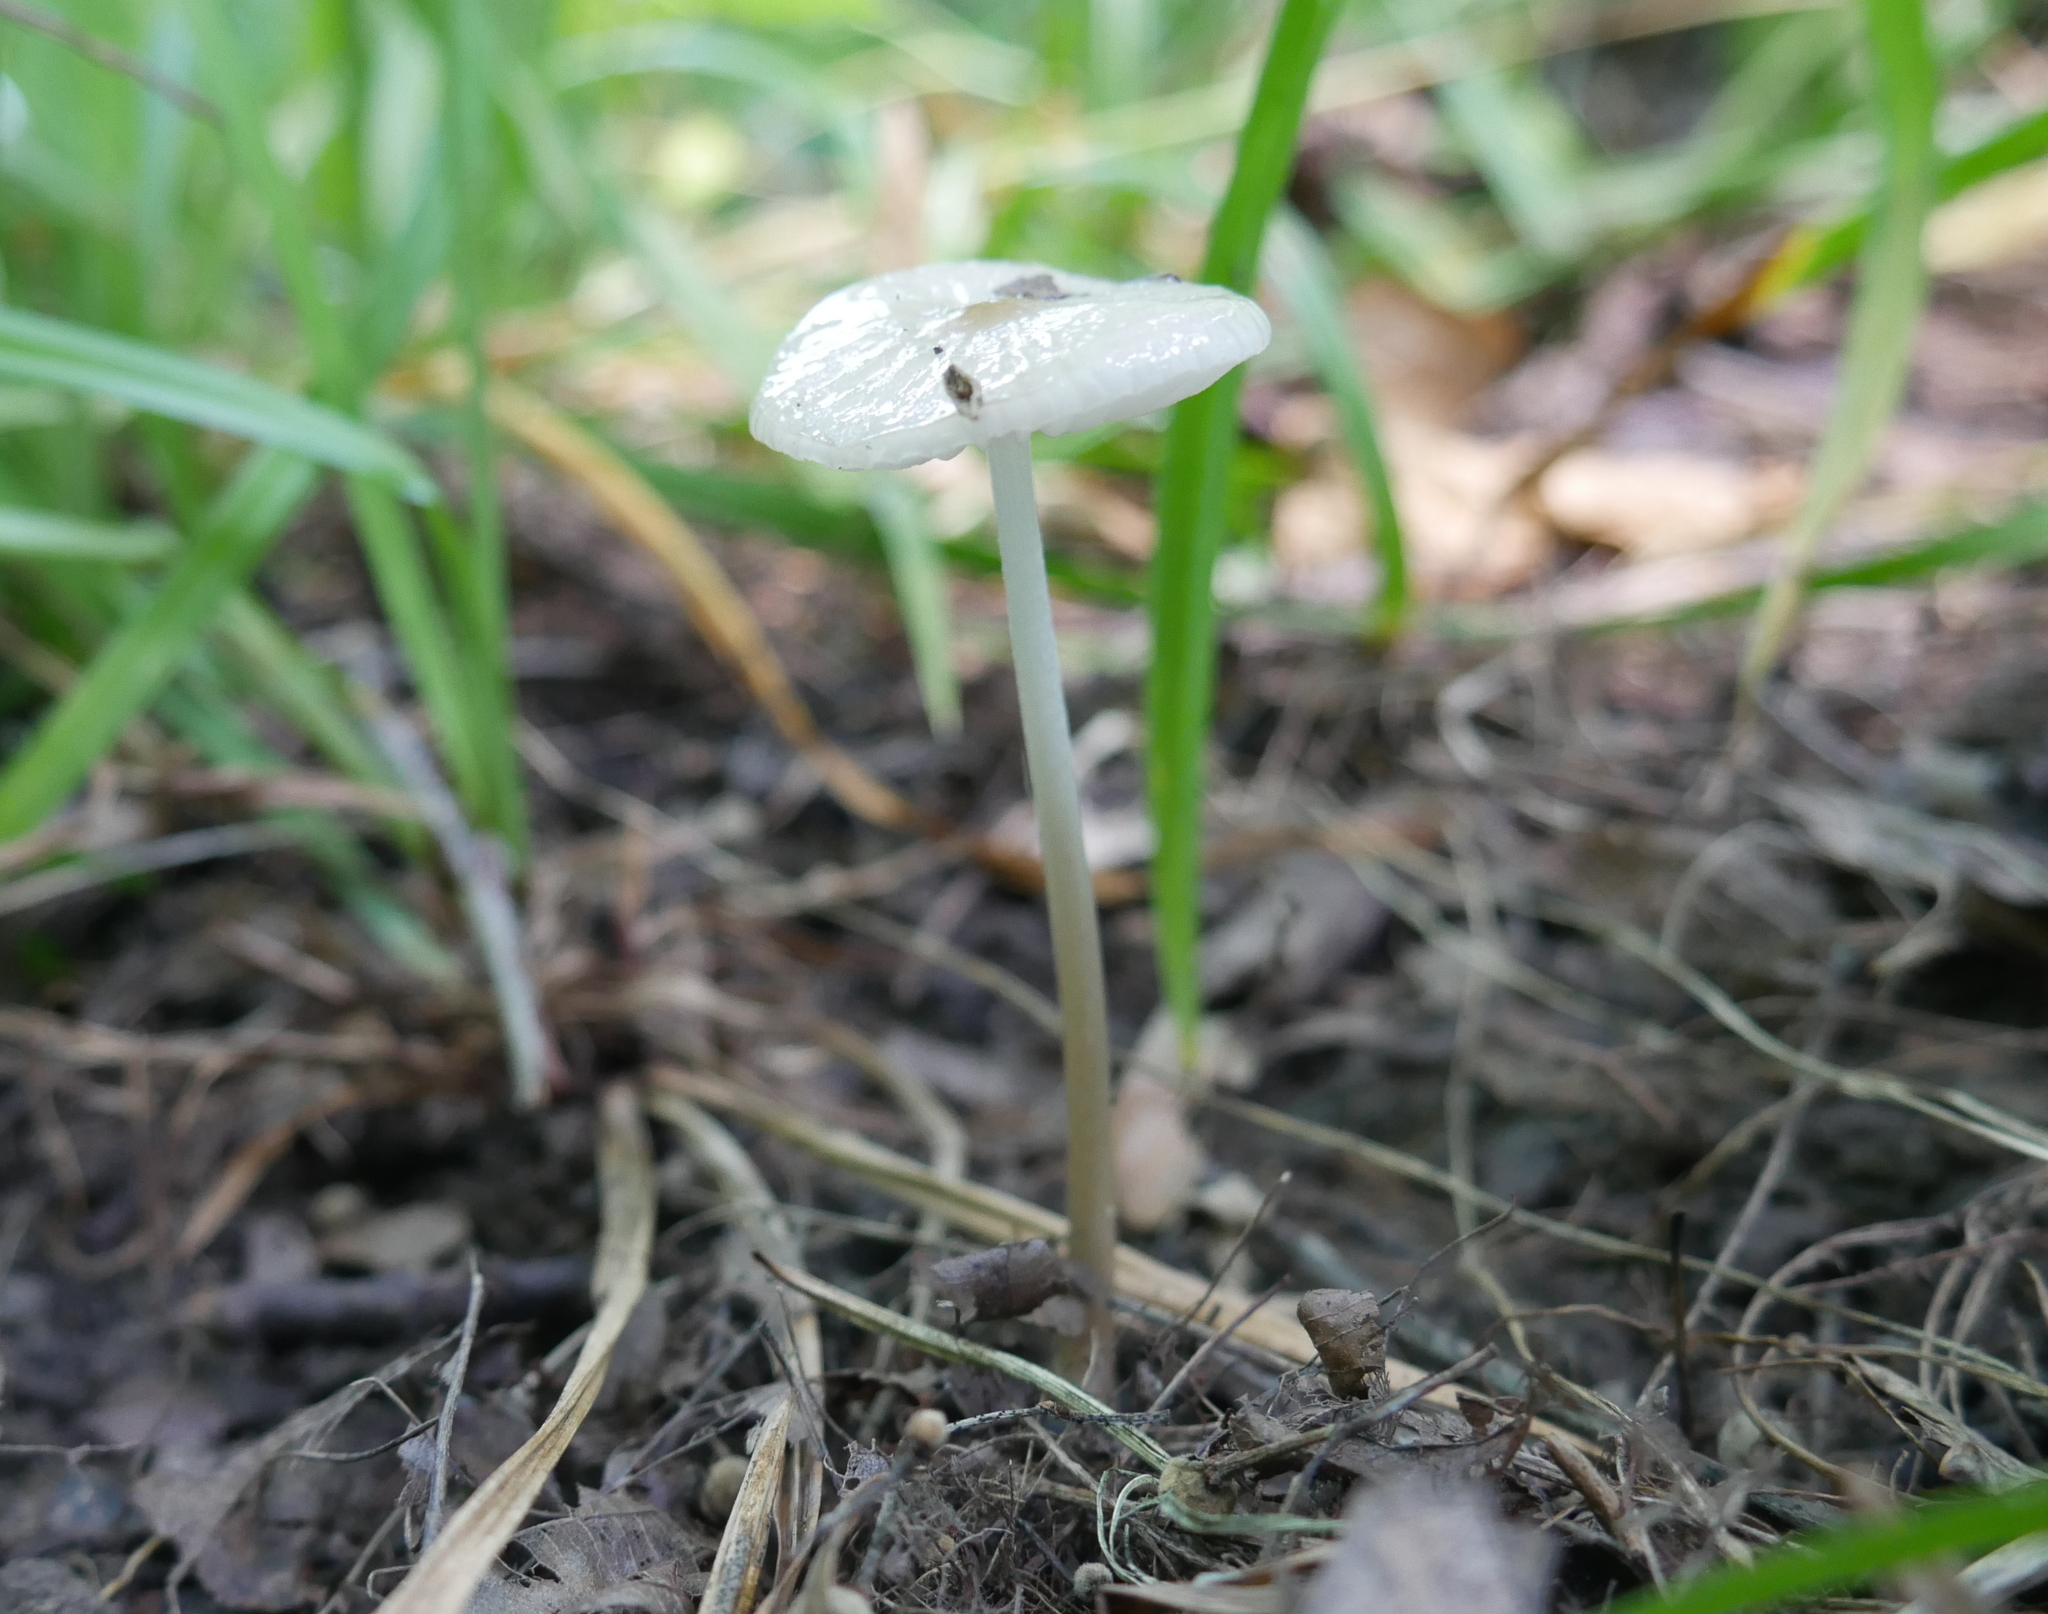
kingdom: Fungi
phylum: Basidiomycota
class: Agaricomycetes
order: Agaricales
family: Physalacriaceae
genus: Hymenopellis
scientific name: Hymenopellis limonispora
